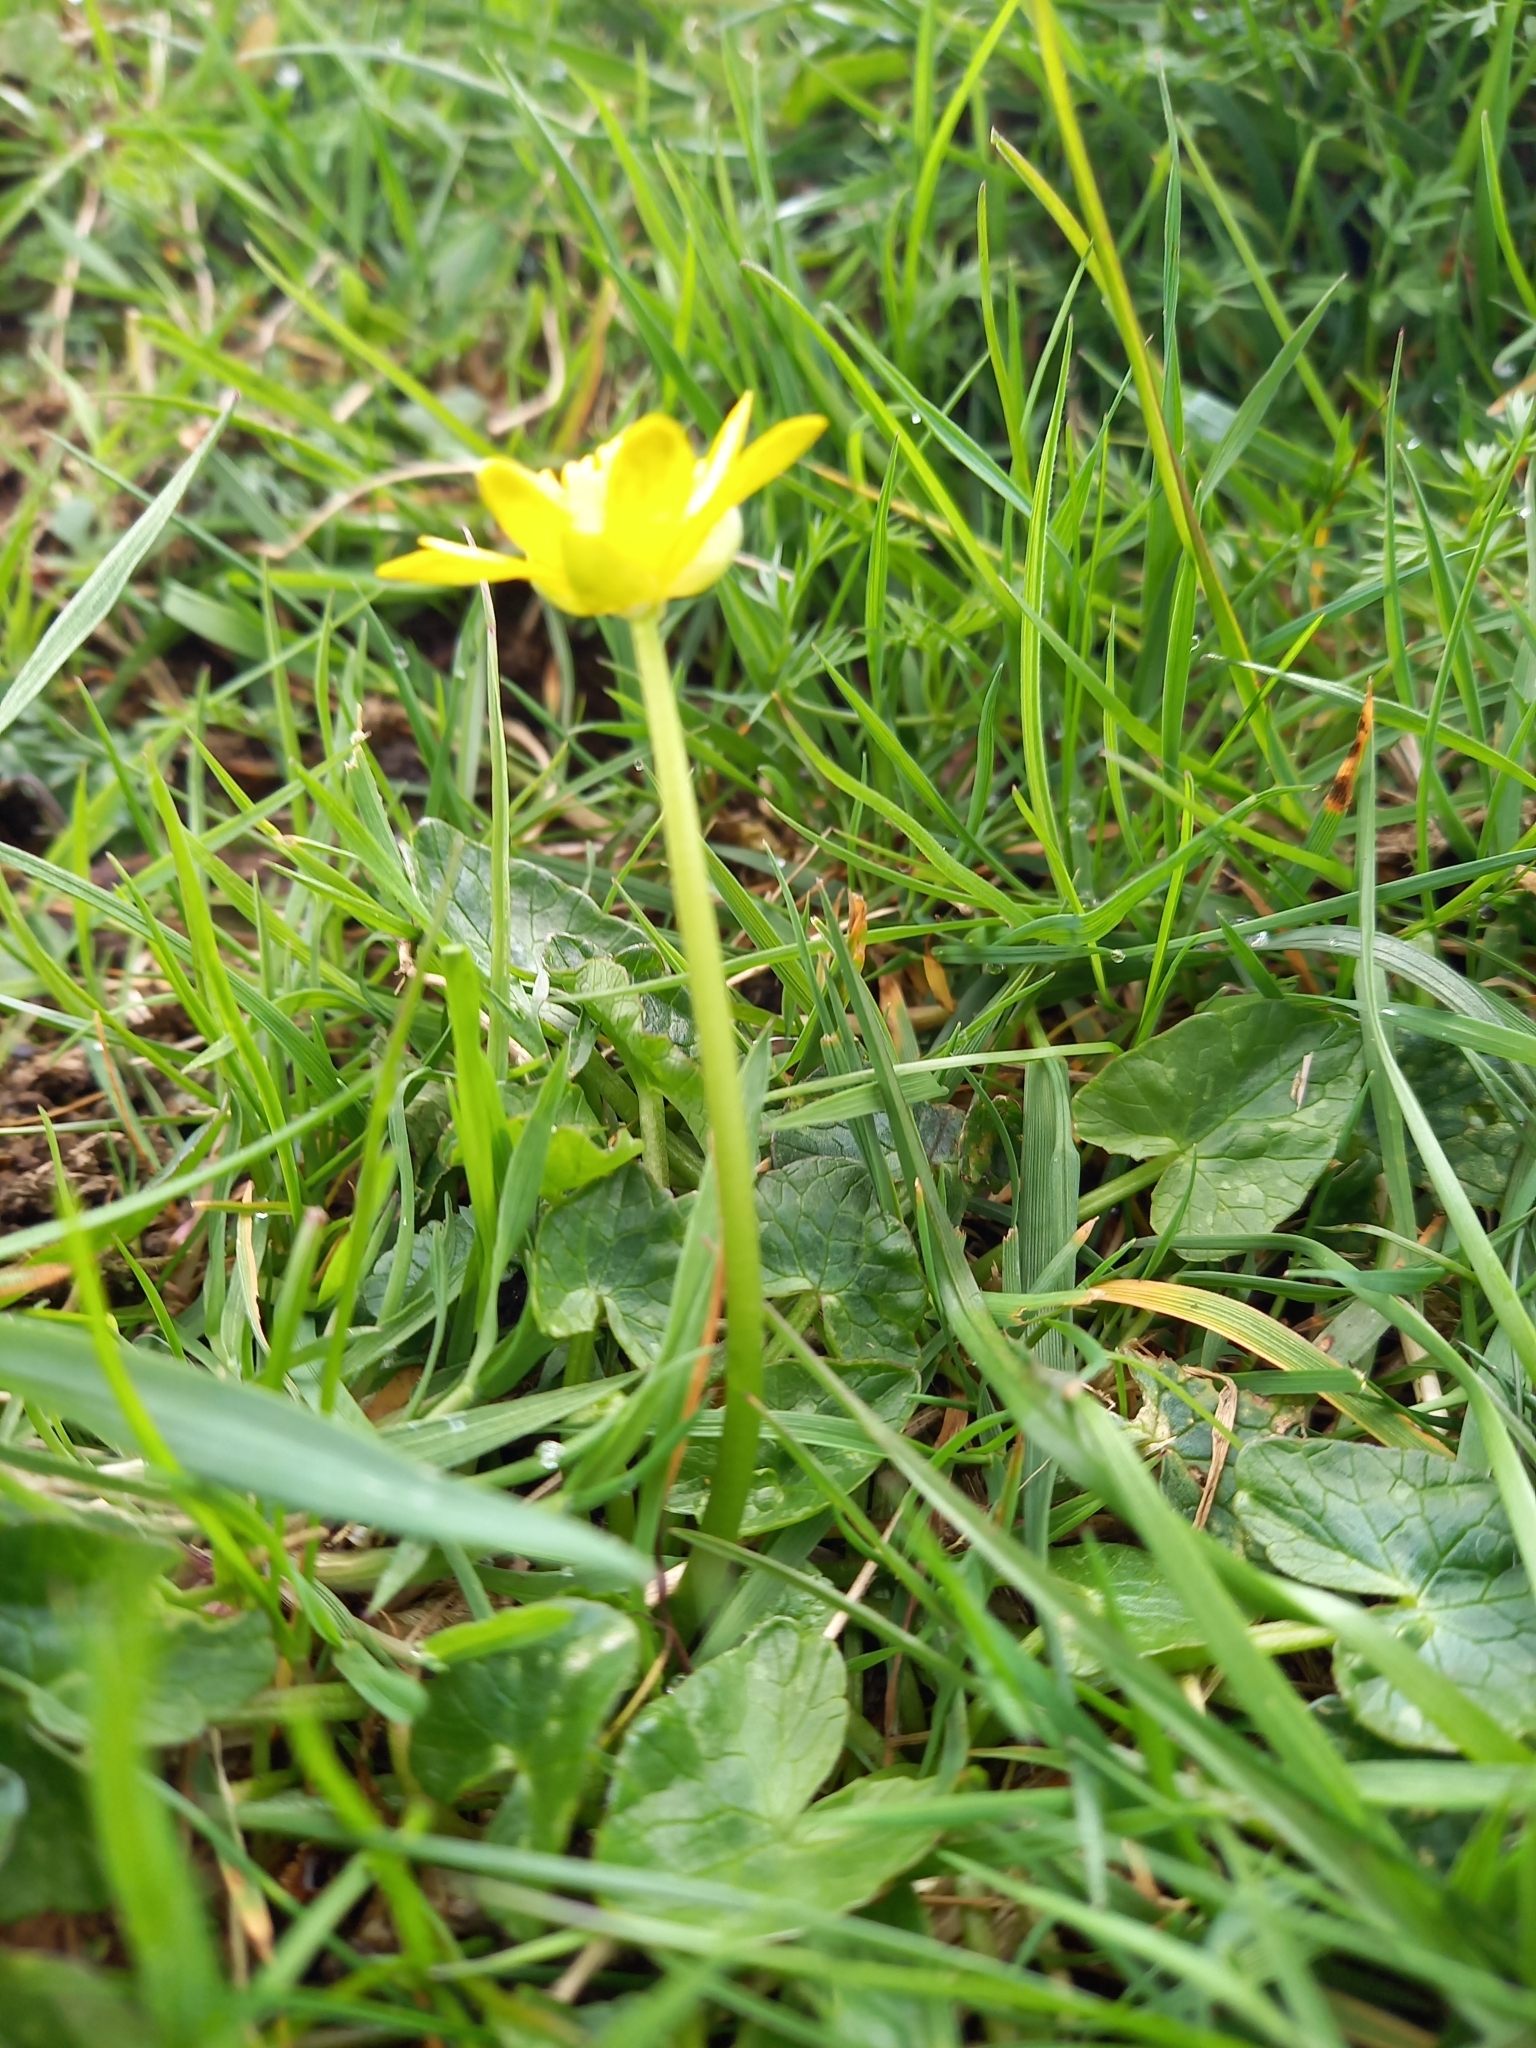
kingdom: Plantae
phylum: Tracheophyta
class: Magnoliopsida
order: Ranunculales
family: Ranunculaceae
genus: Ficaria
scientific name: Ficaria verna
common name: Lesser celandine
